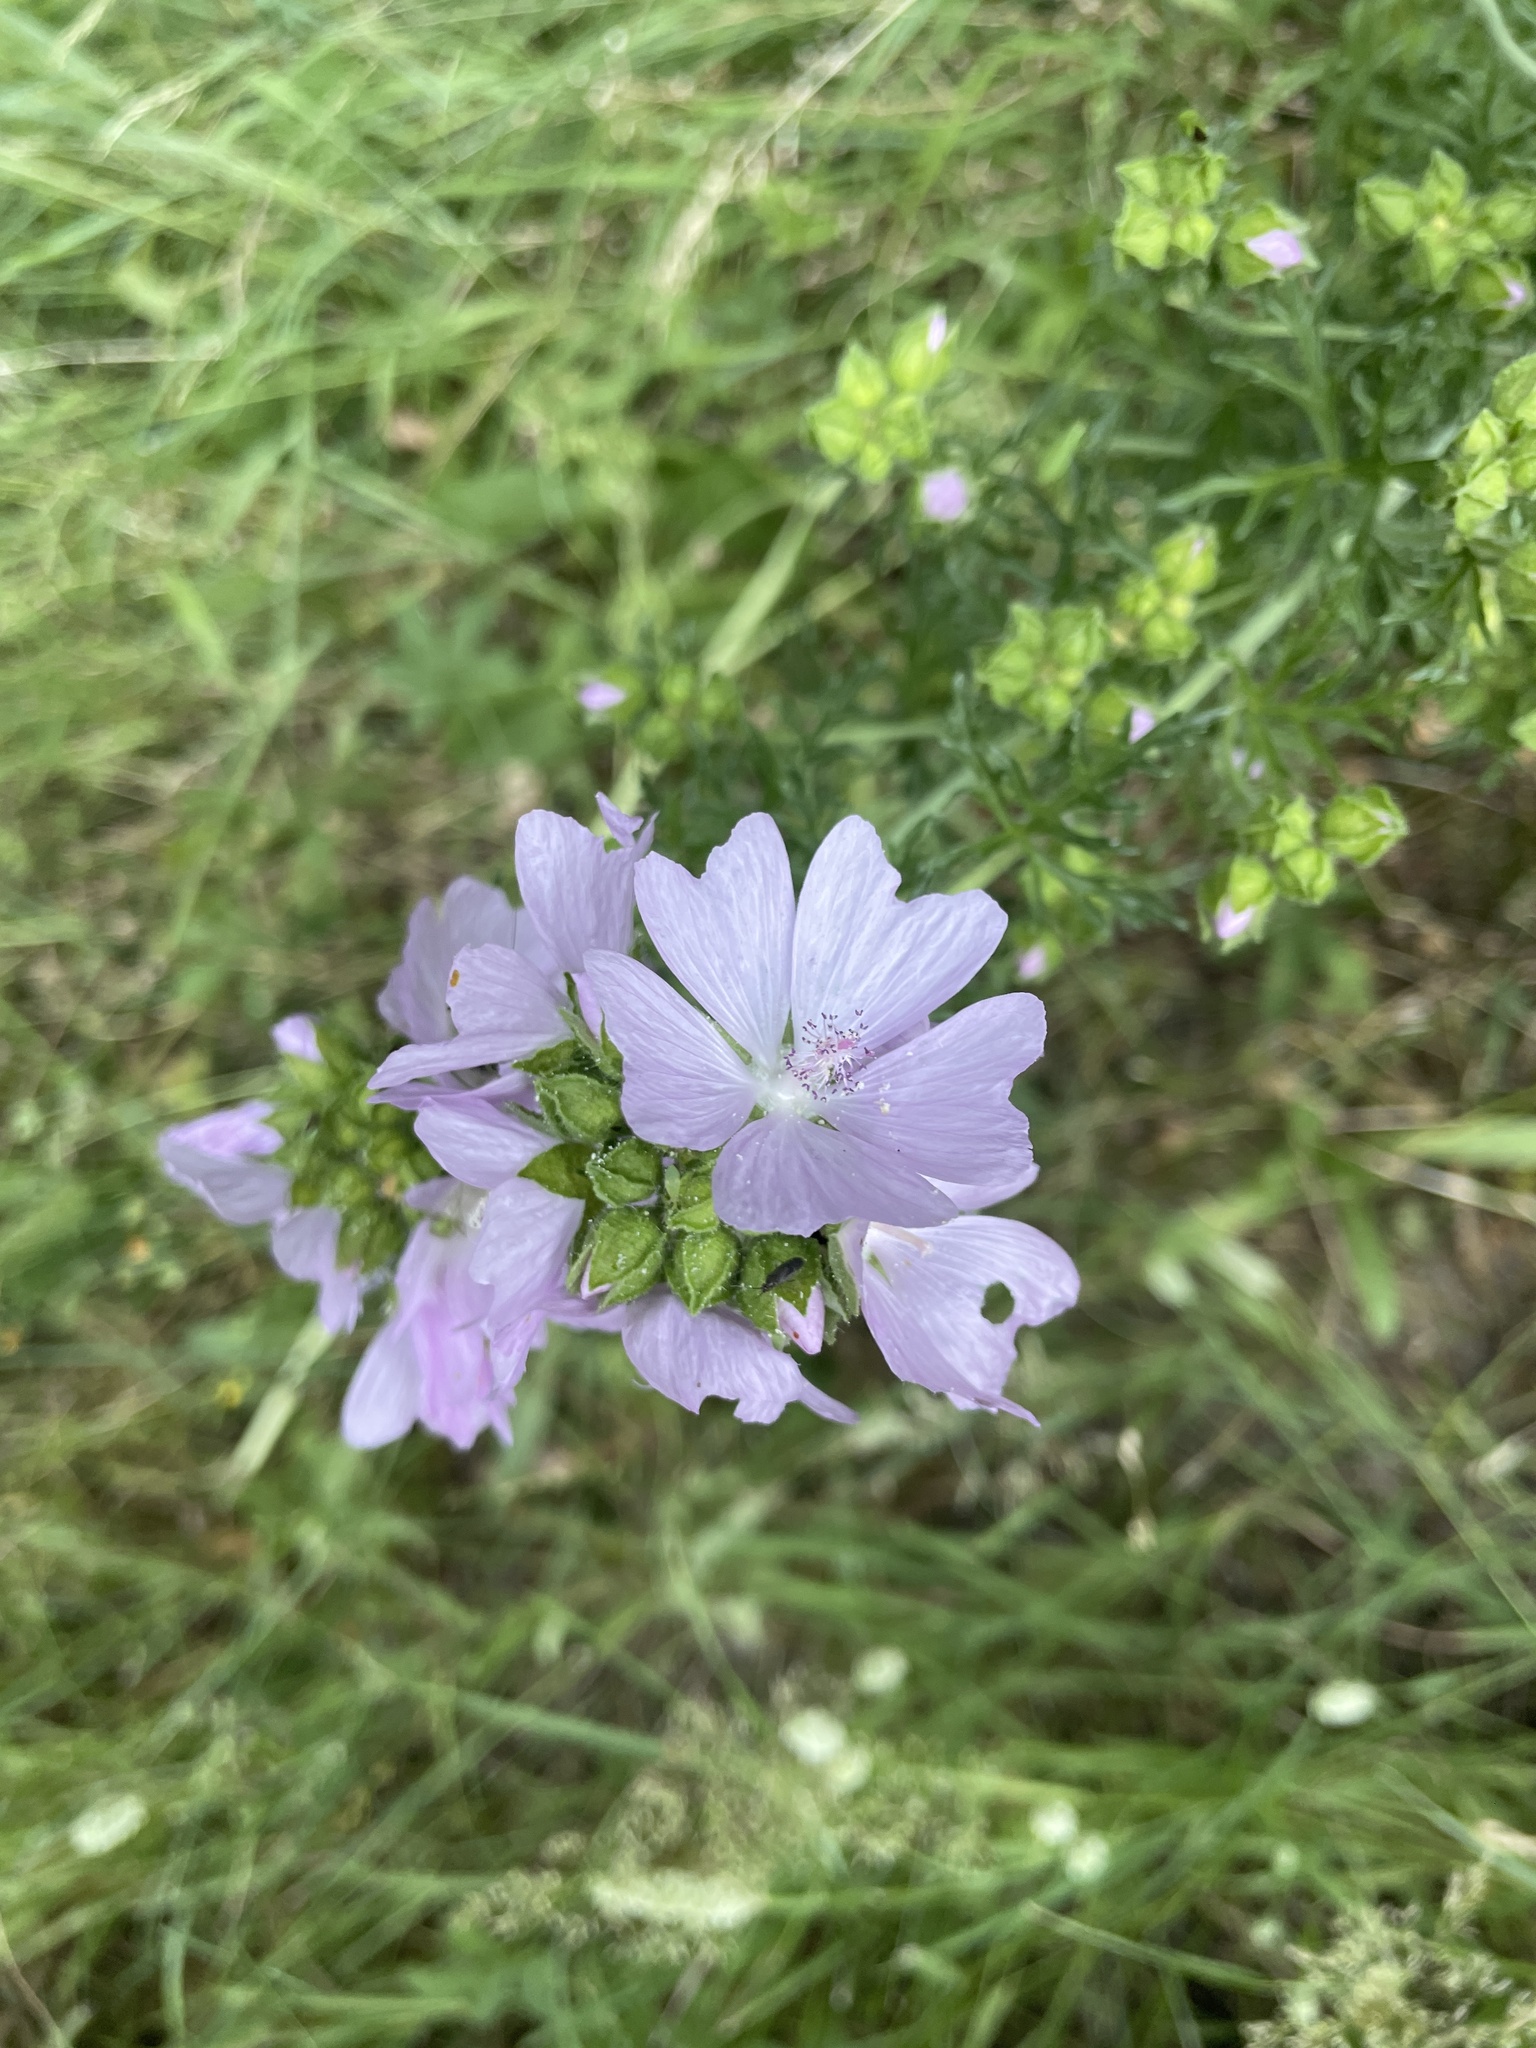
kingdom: Plantae
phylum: Tracheophyta
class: Magnoliopsida
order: Malvales
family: Malvaceae
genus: Malva
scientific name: Malva moschata
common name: Musk mallow
